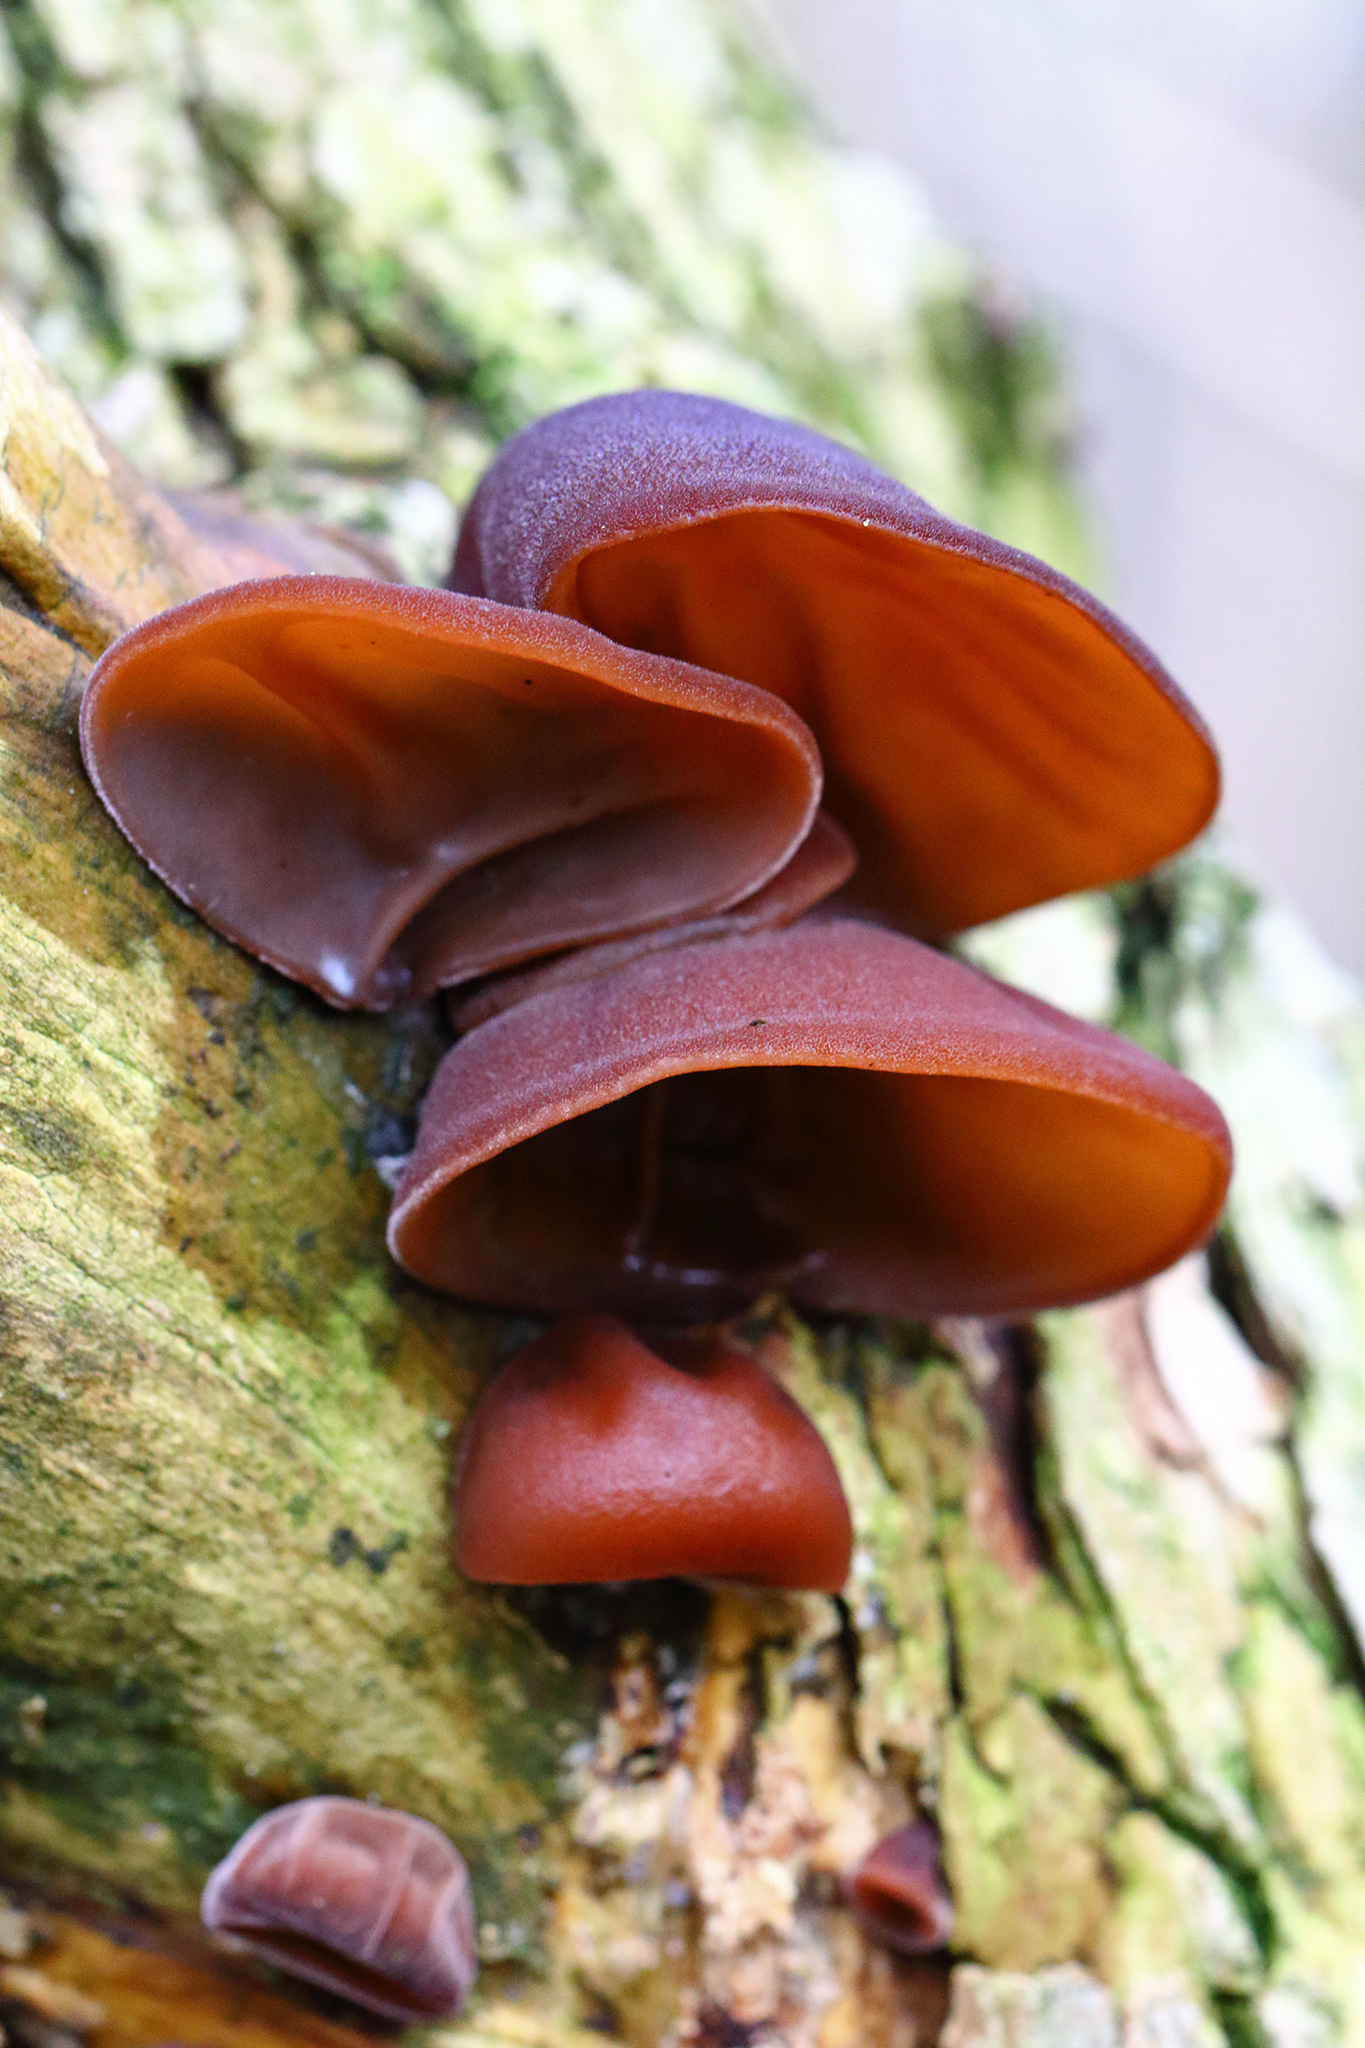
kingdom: Fungi
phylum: Basidiomycota
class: Agaricomycetes
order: Auriculariales
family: Auriculariaceae
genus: Auricularia
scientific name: Auricularia auricula-judae
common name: Jelly ear
